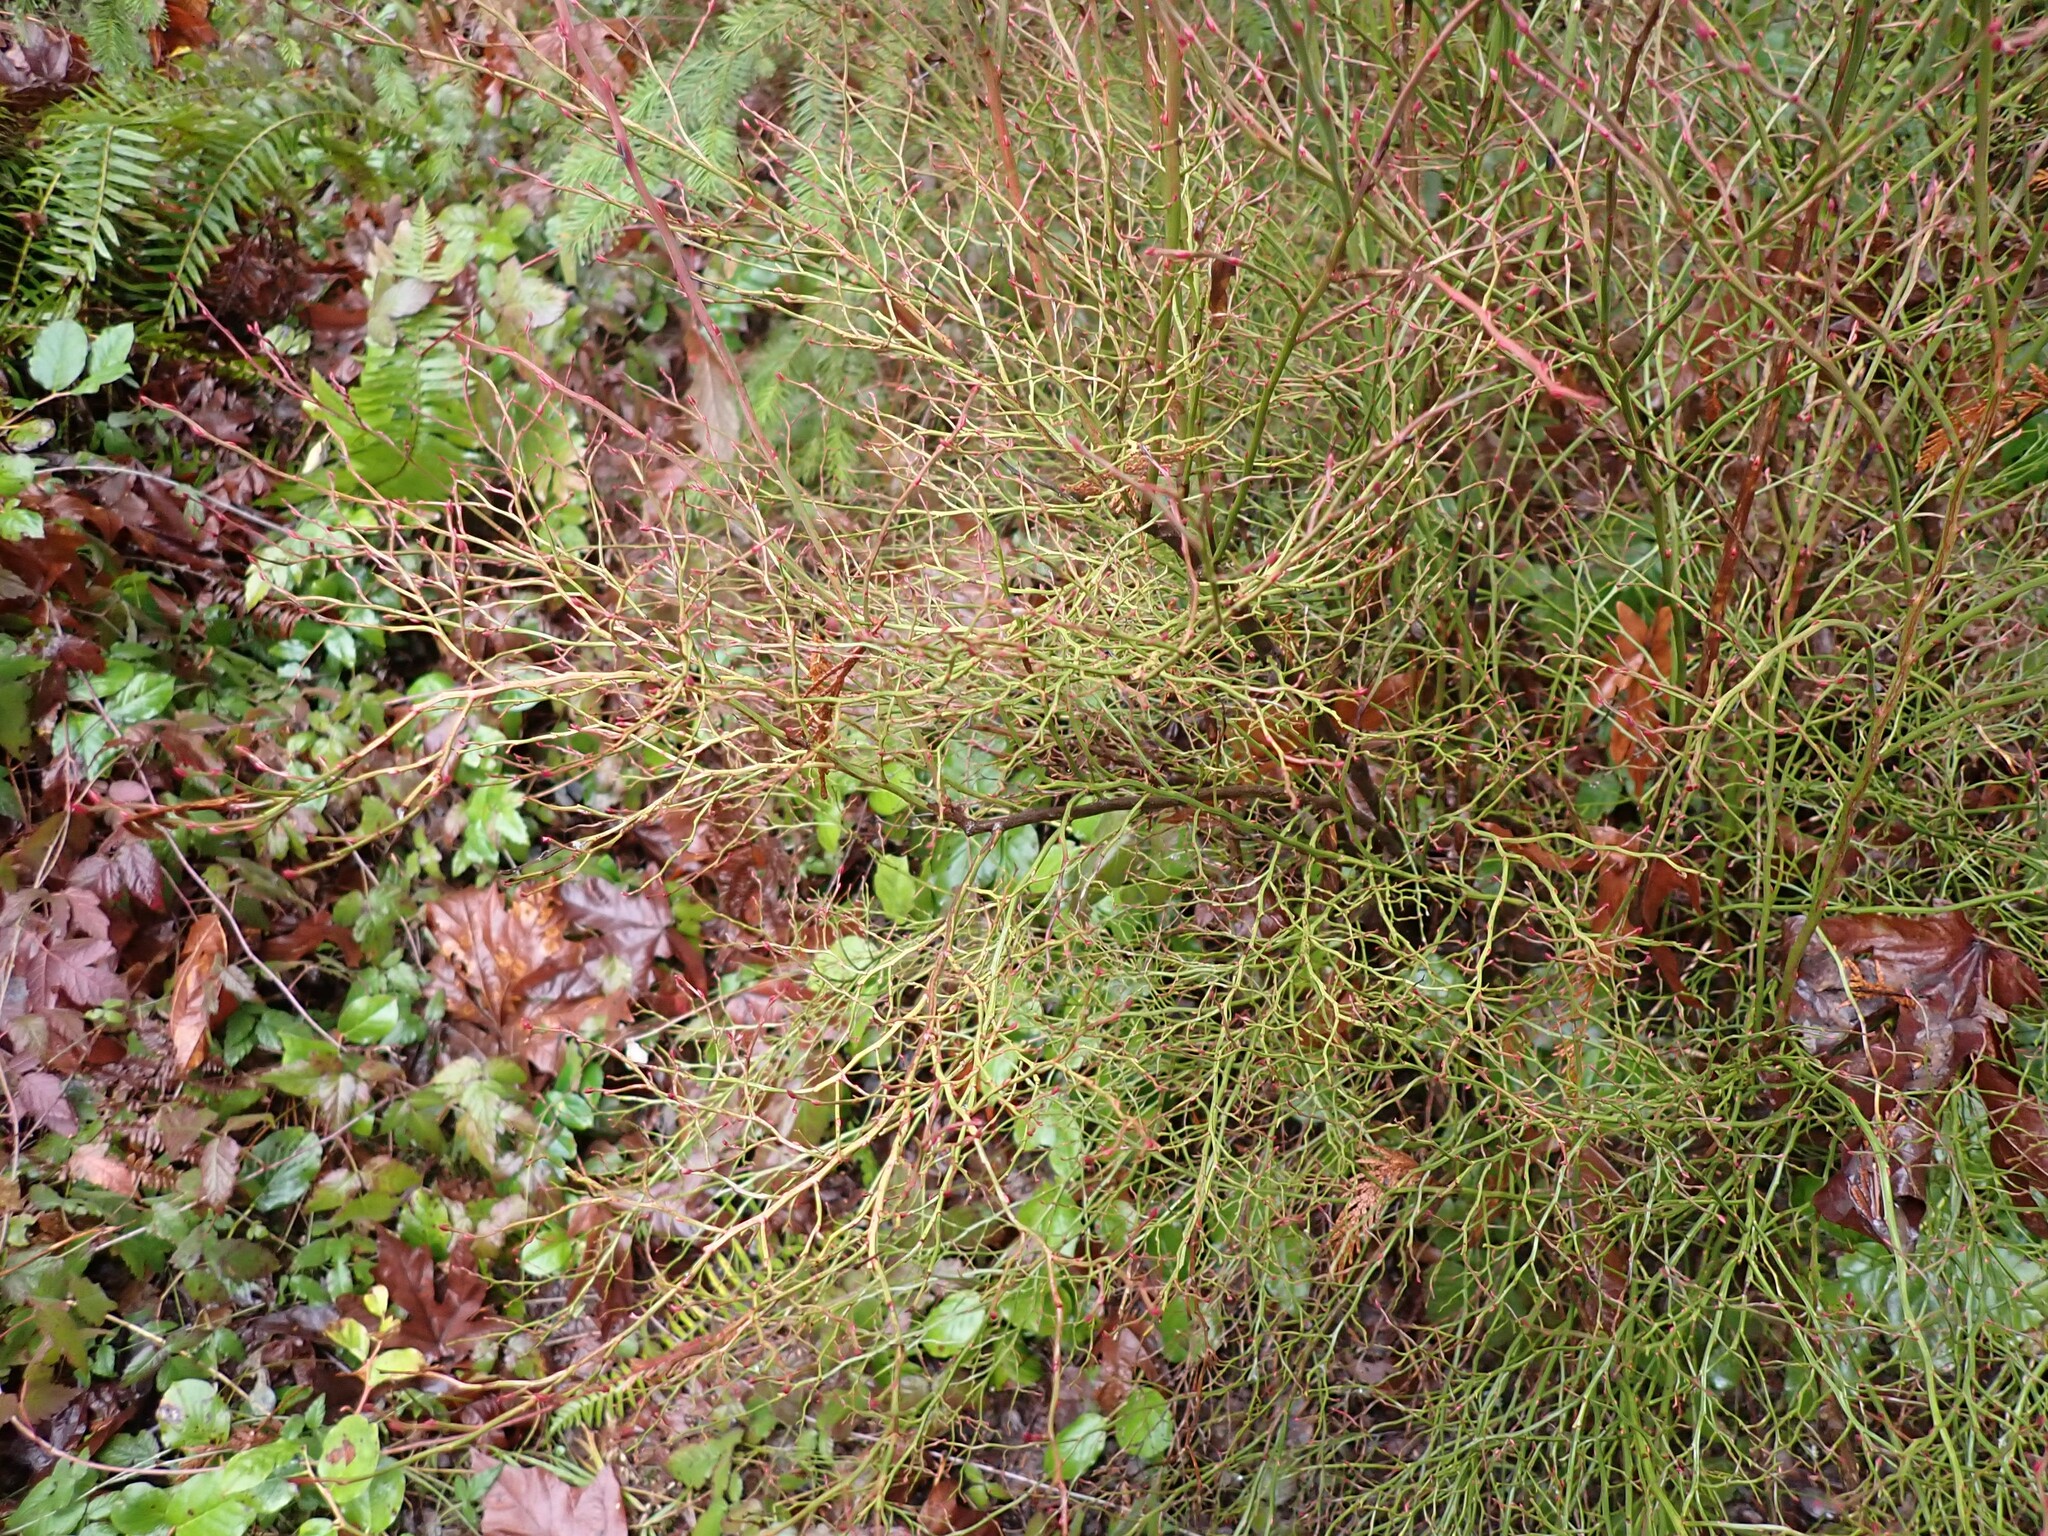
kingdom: Plantae
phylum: Tracheophyta
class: Magnoliopsida
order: Ericales
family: Ericaceae
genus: Vaccinium
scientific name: Vaccinium parvifolium
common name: Red-huckleberry
